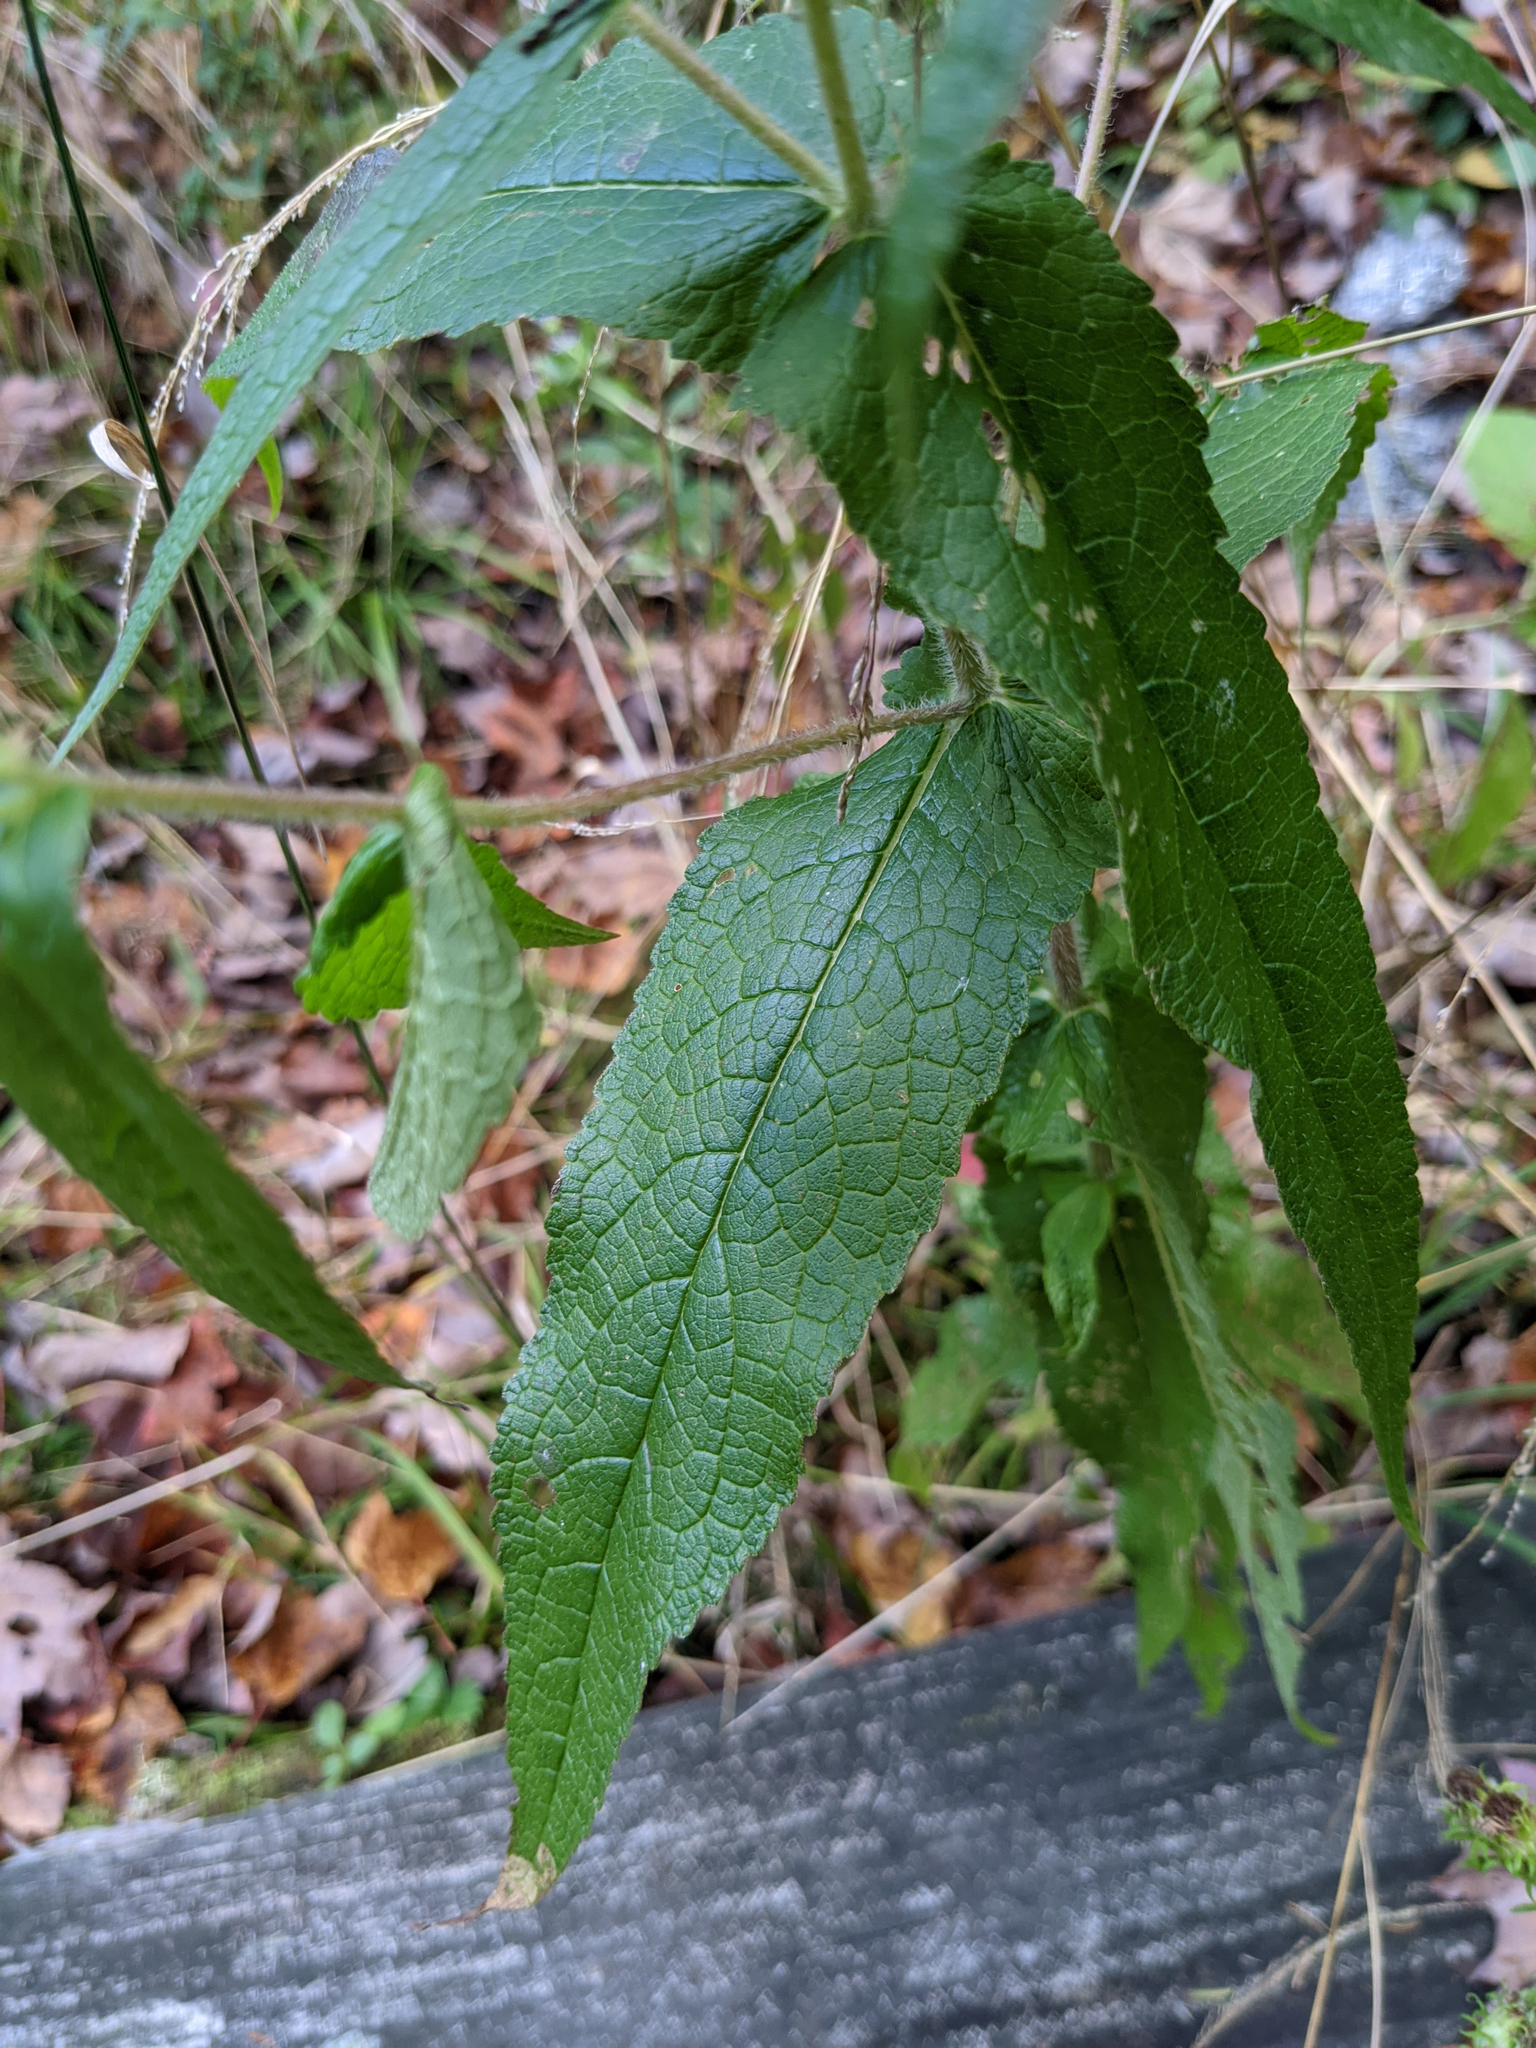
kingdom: Plantae
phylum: Tracheophyta
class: Magnoliopsida
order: Asterales
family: Asteraceae
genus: Eupatorium
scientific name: Eupatorium perfoliatum
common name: Boneset
